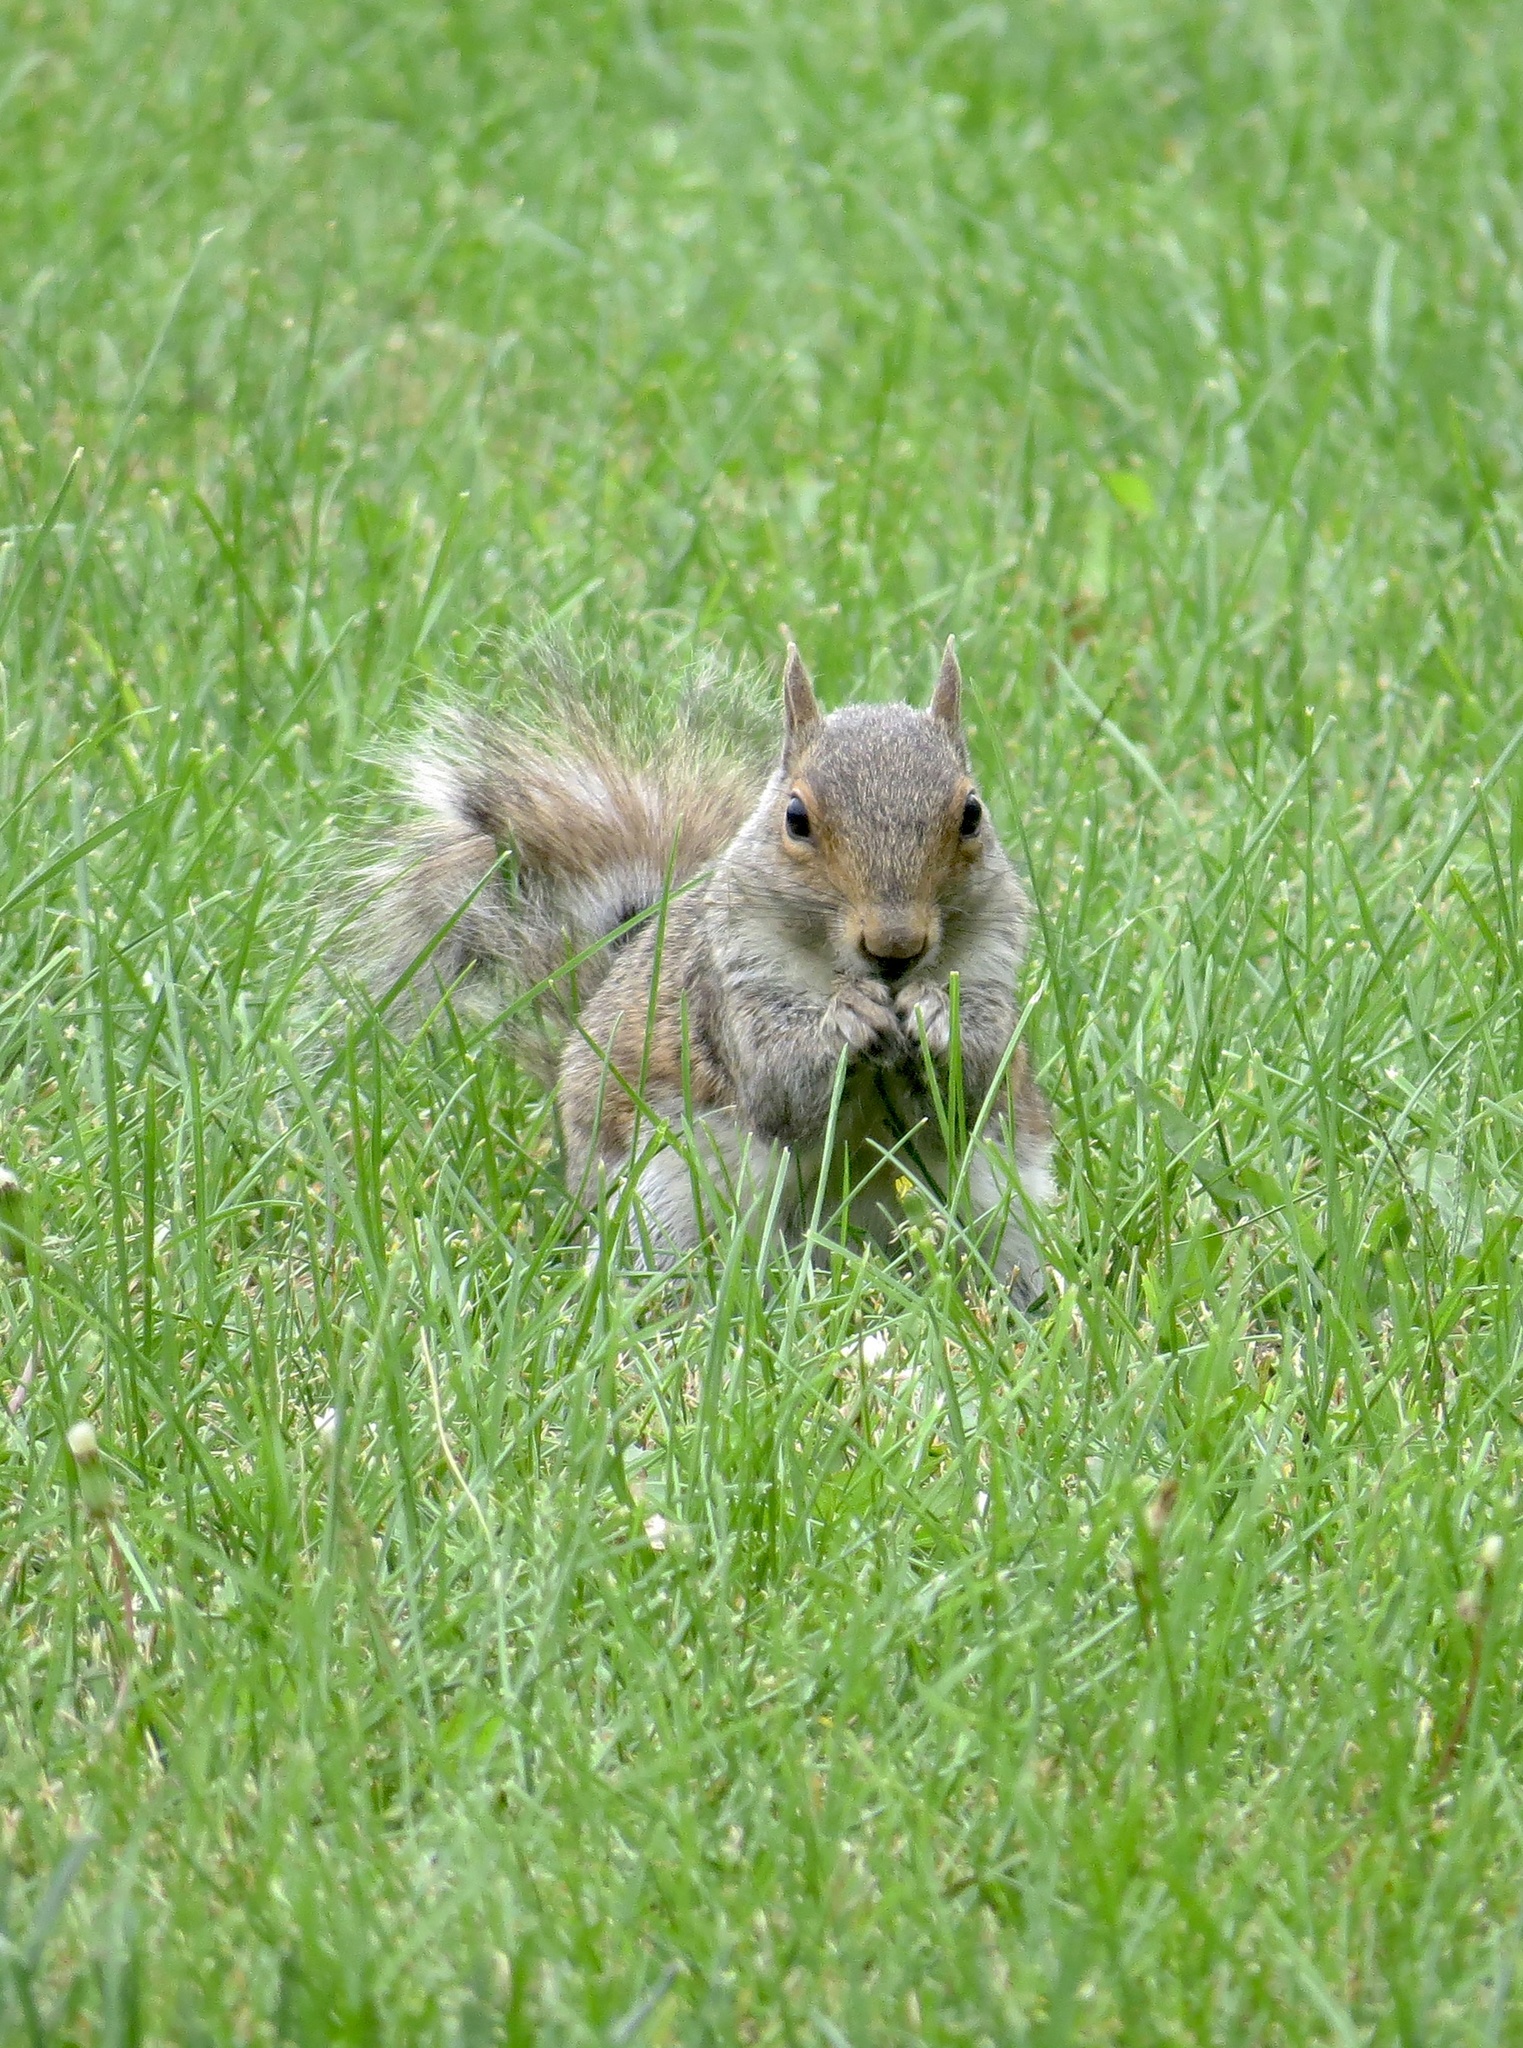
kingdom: Animalia
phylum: Chordata
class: Mammalia
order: Rodentia
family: Sciuridae
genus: Sciurus
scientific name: Sciurus carolinensis
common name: Eastern gray squirrel
